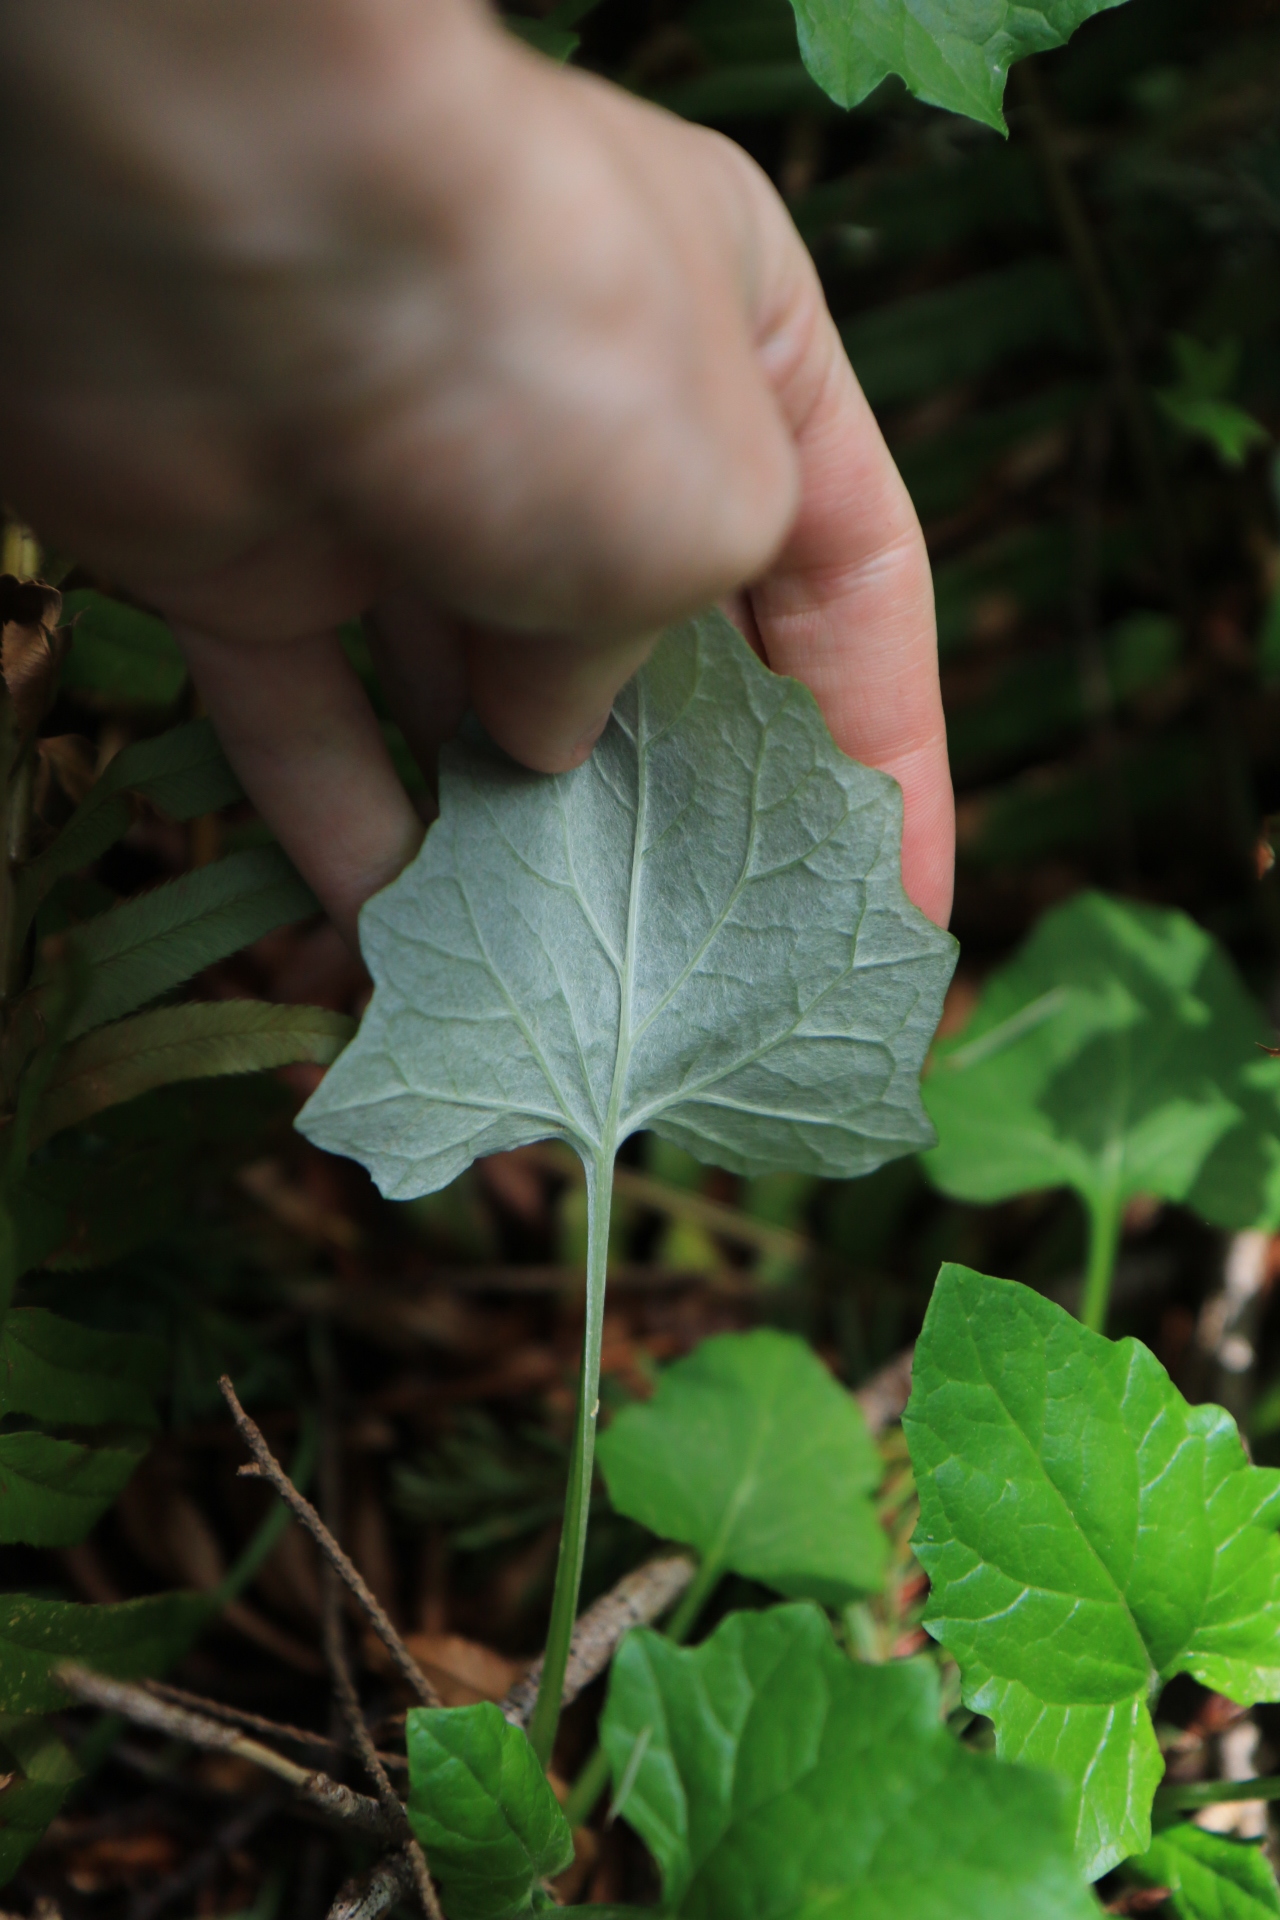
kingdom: Plantae
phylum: Tracheophyta
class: Magnoliopsida
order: Asterales
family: Asteraceae
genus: Adenocaulon
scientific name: Adenocaulon bicolor
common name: Trailplant
